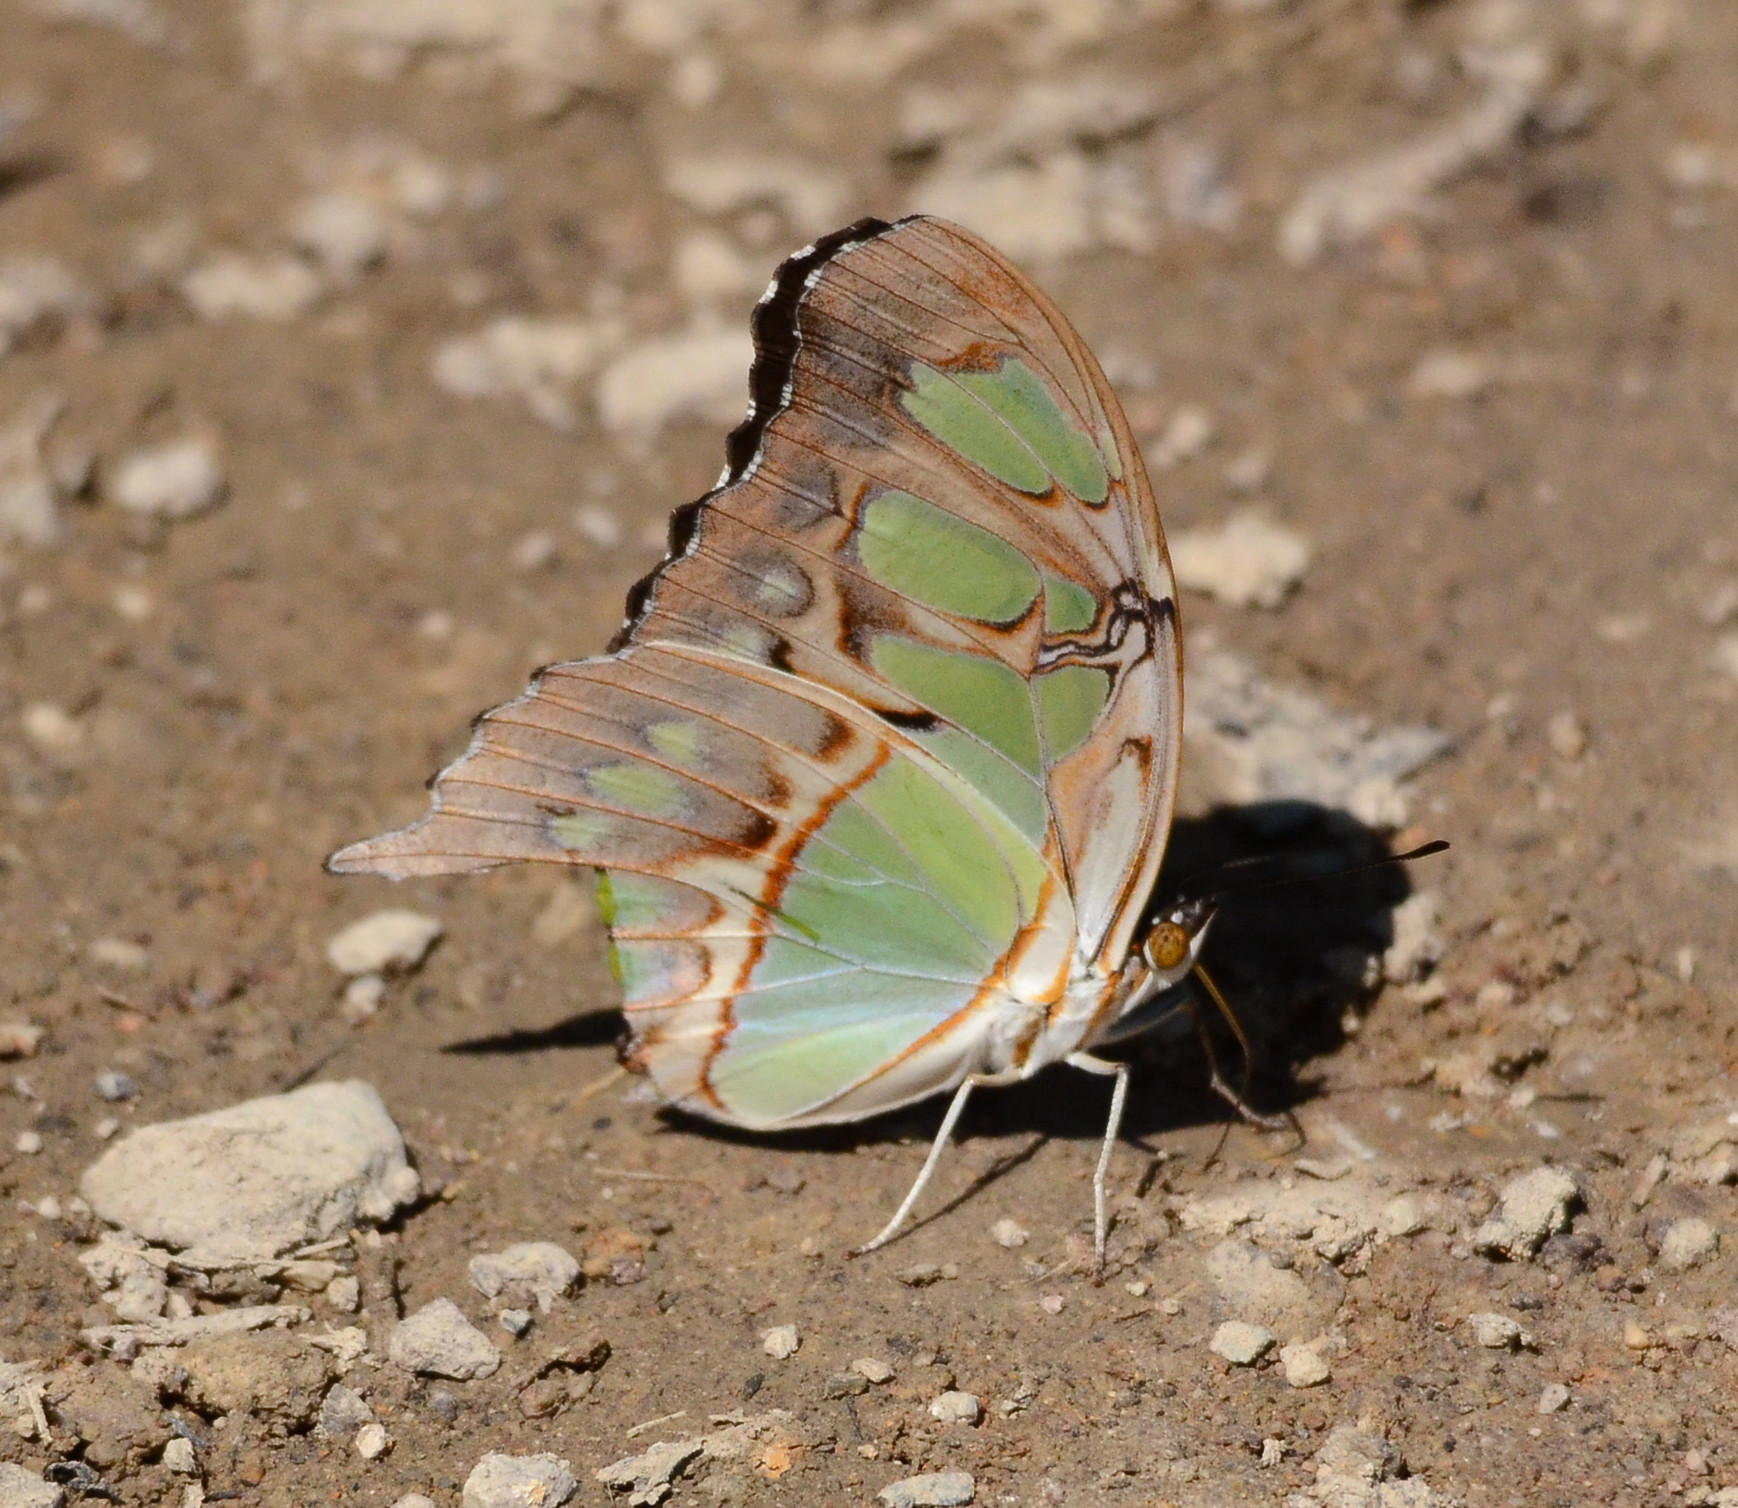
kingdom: Animalia
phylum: Arthropoda
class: Insecta
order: Lepidoptera
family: Nymphalidae
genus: Siproeta
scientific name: Siproeta stelenes
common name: Malachite
